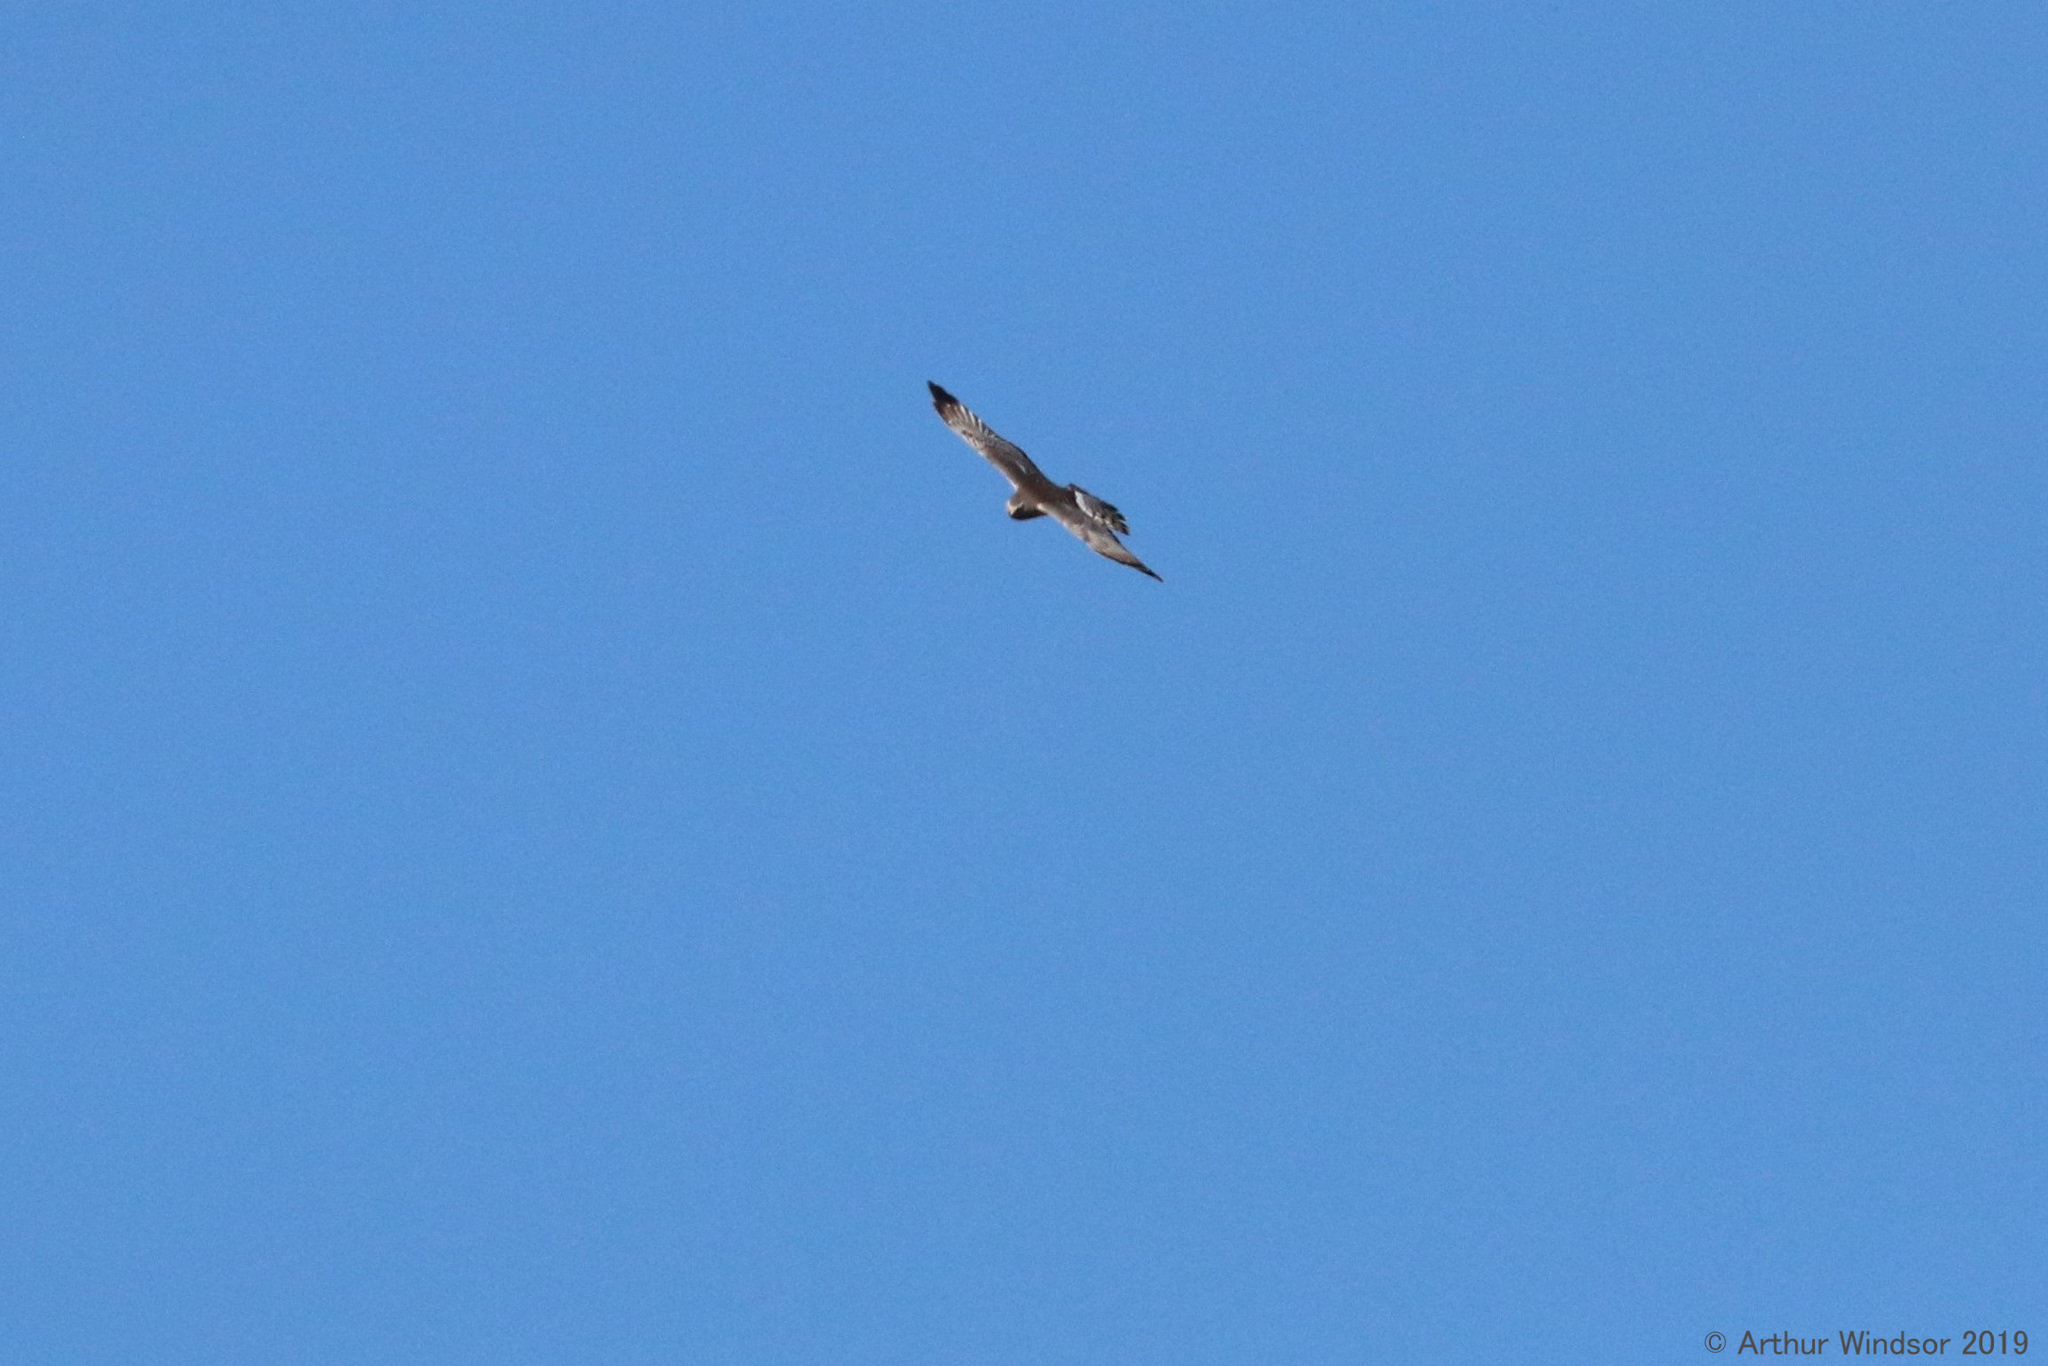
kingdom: Animalia
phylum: Chordata
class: Aves
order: Accipitriformes
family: Accipitridae
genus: Circus
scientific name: Circus cyaneus
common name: Hen harrier
